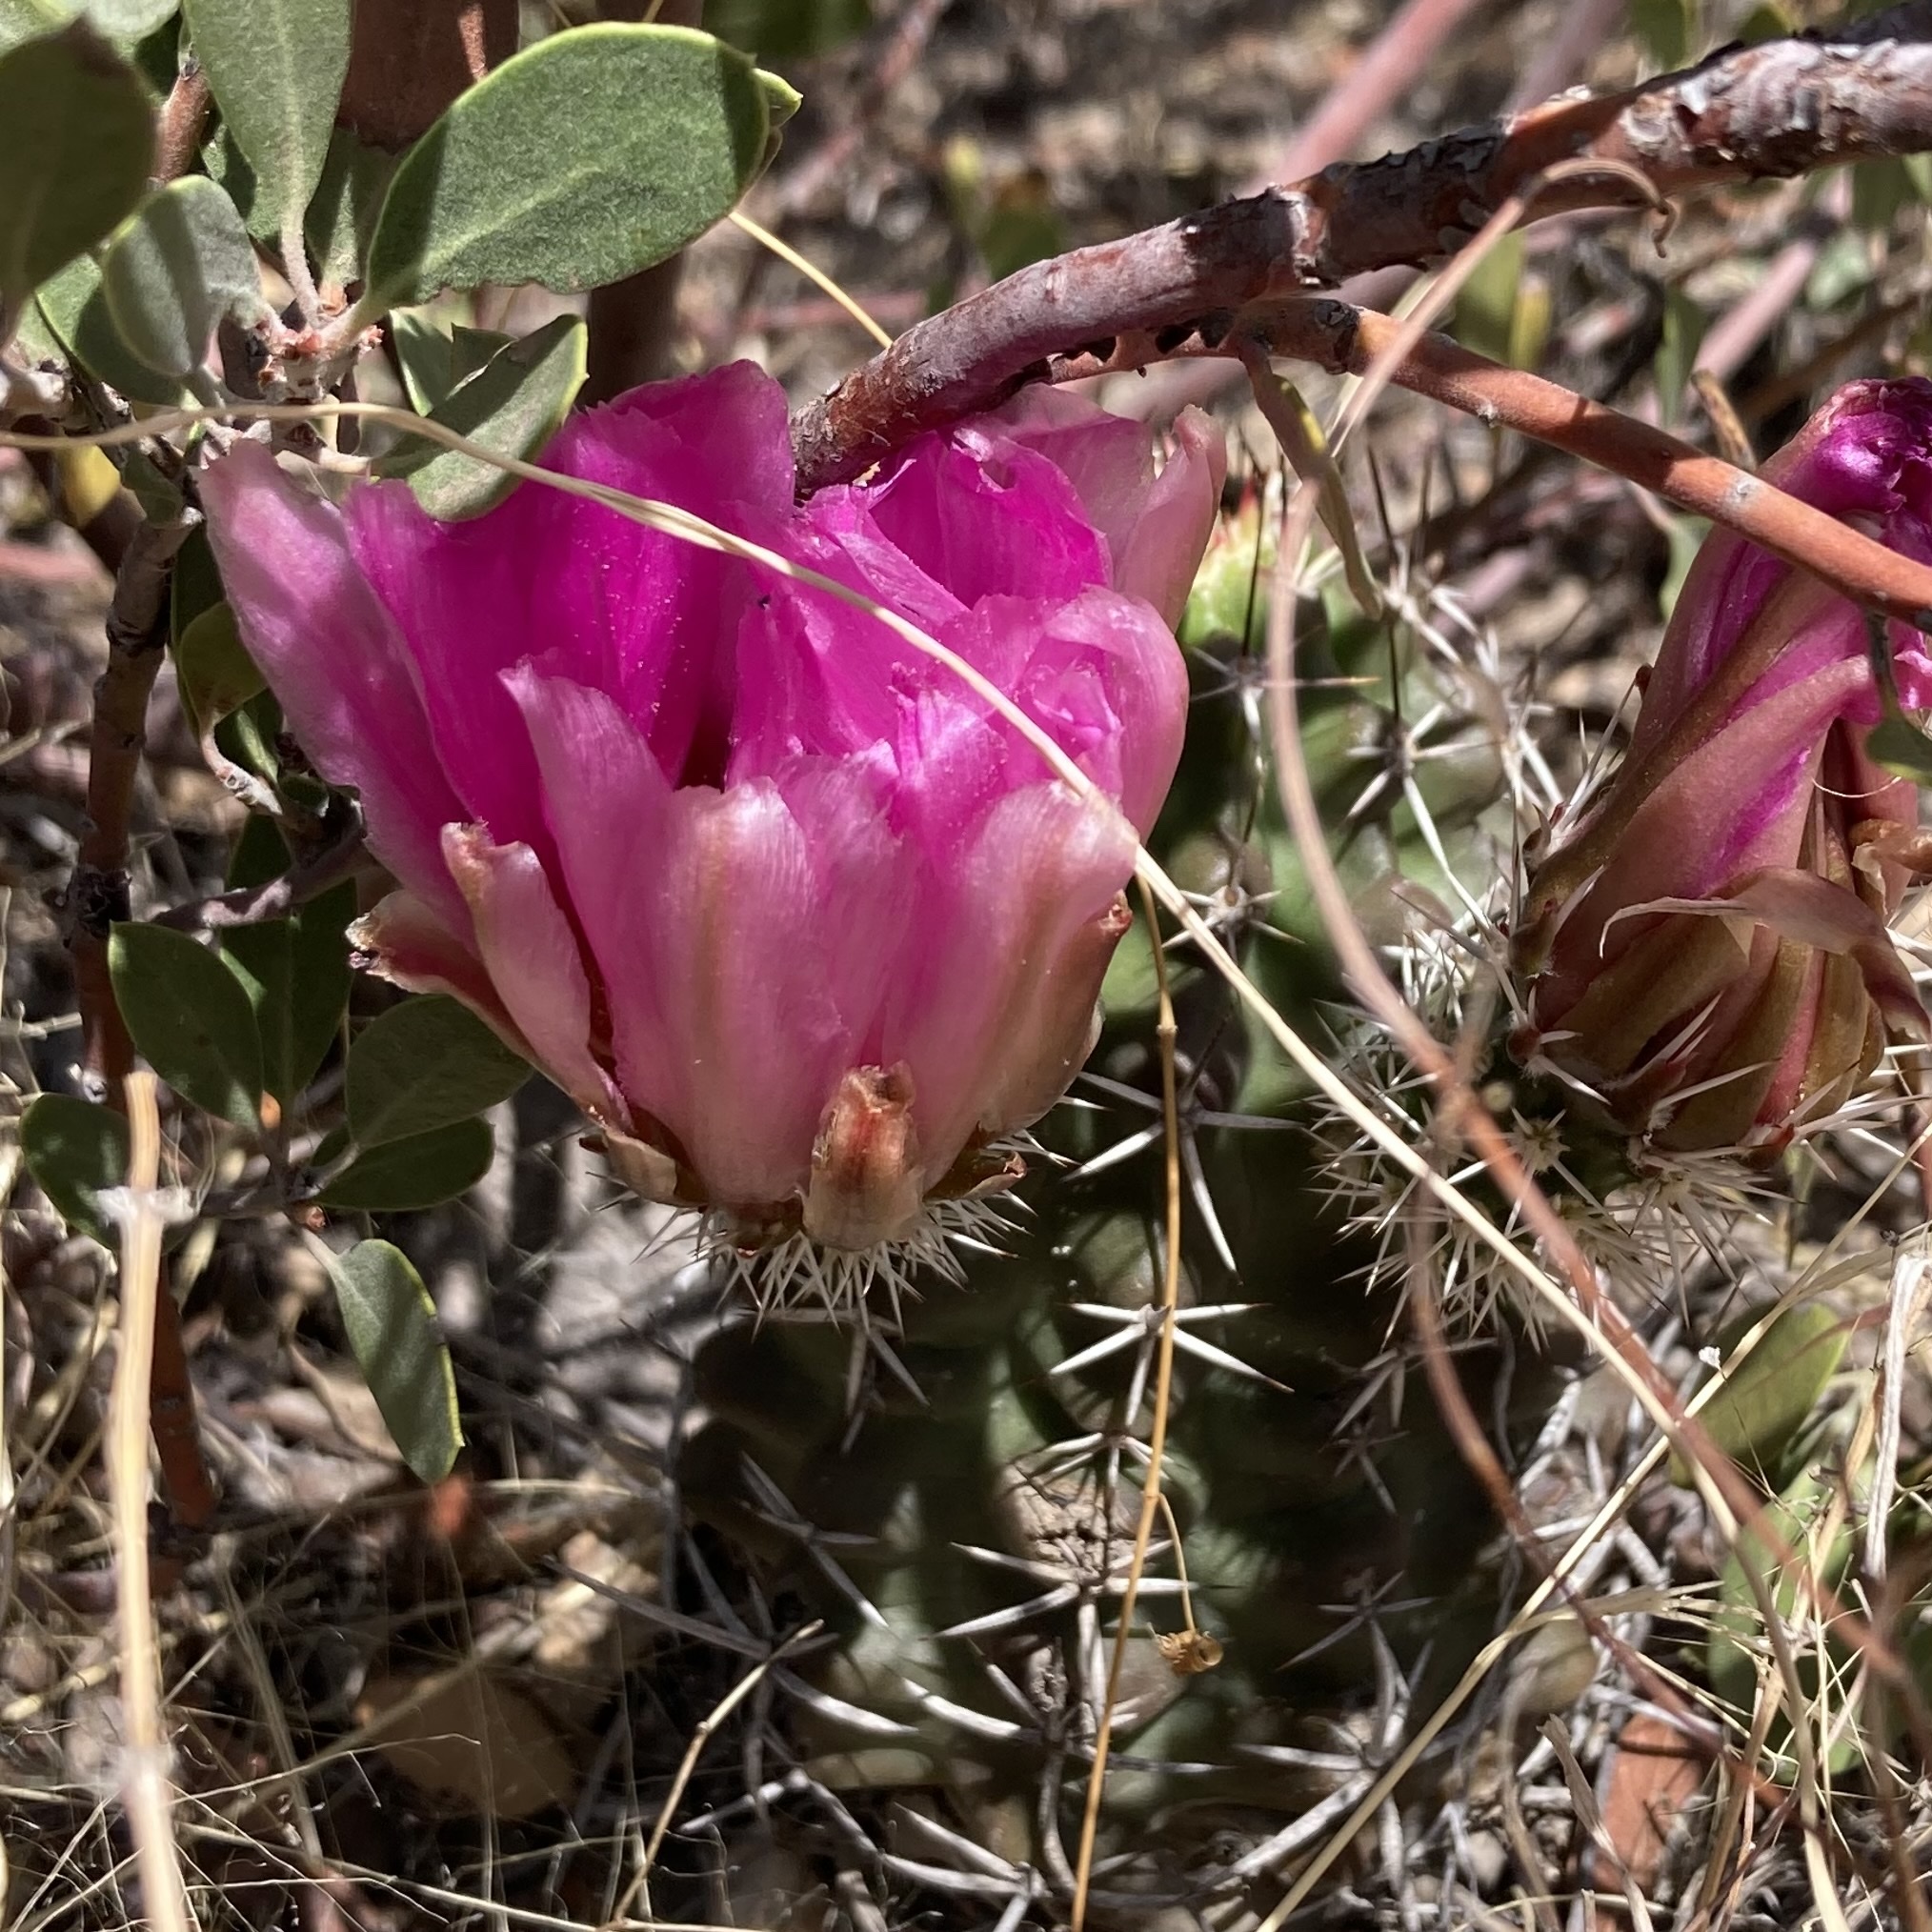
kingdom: Plantae
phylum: Tracheophyta
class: Magnoliopsida
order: Caryophyllales
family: Cactaceae
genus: Echinocereus
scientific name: Echinocereus fendleri
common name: Fendler's hedgehog cactus
